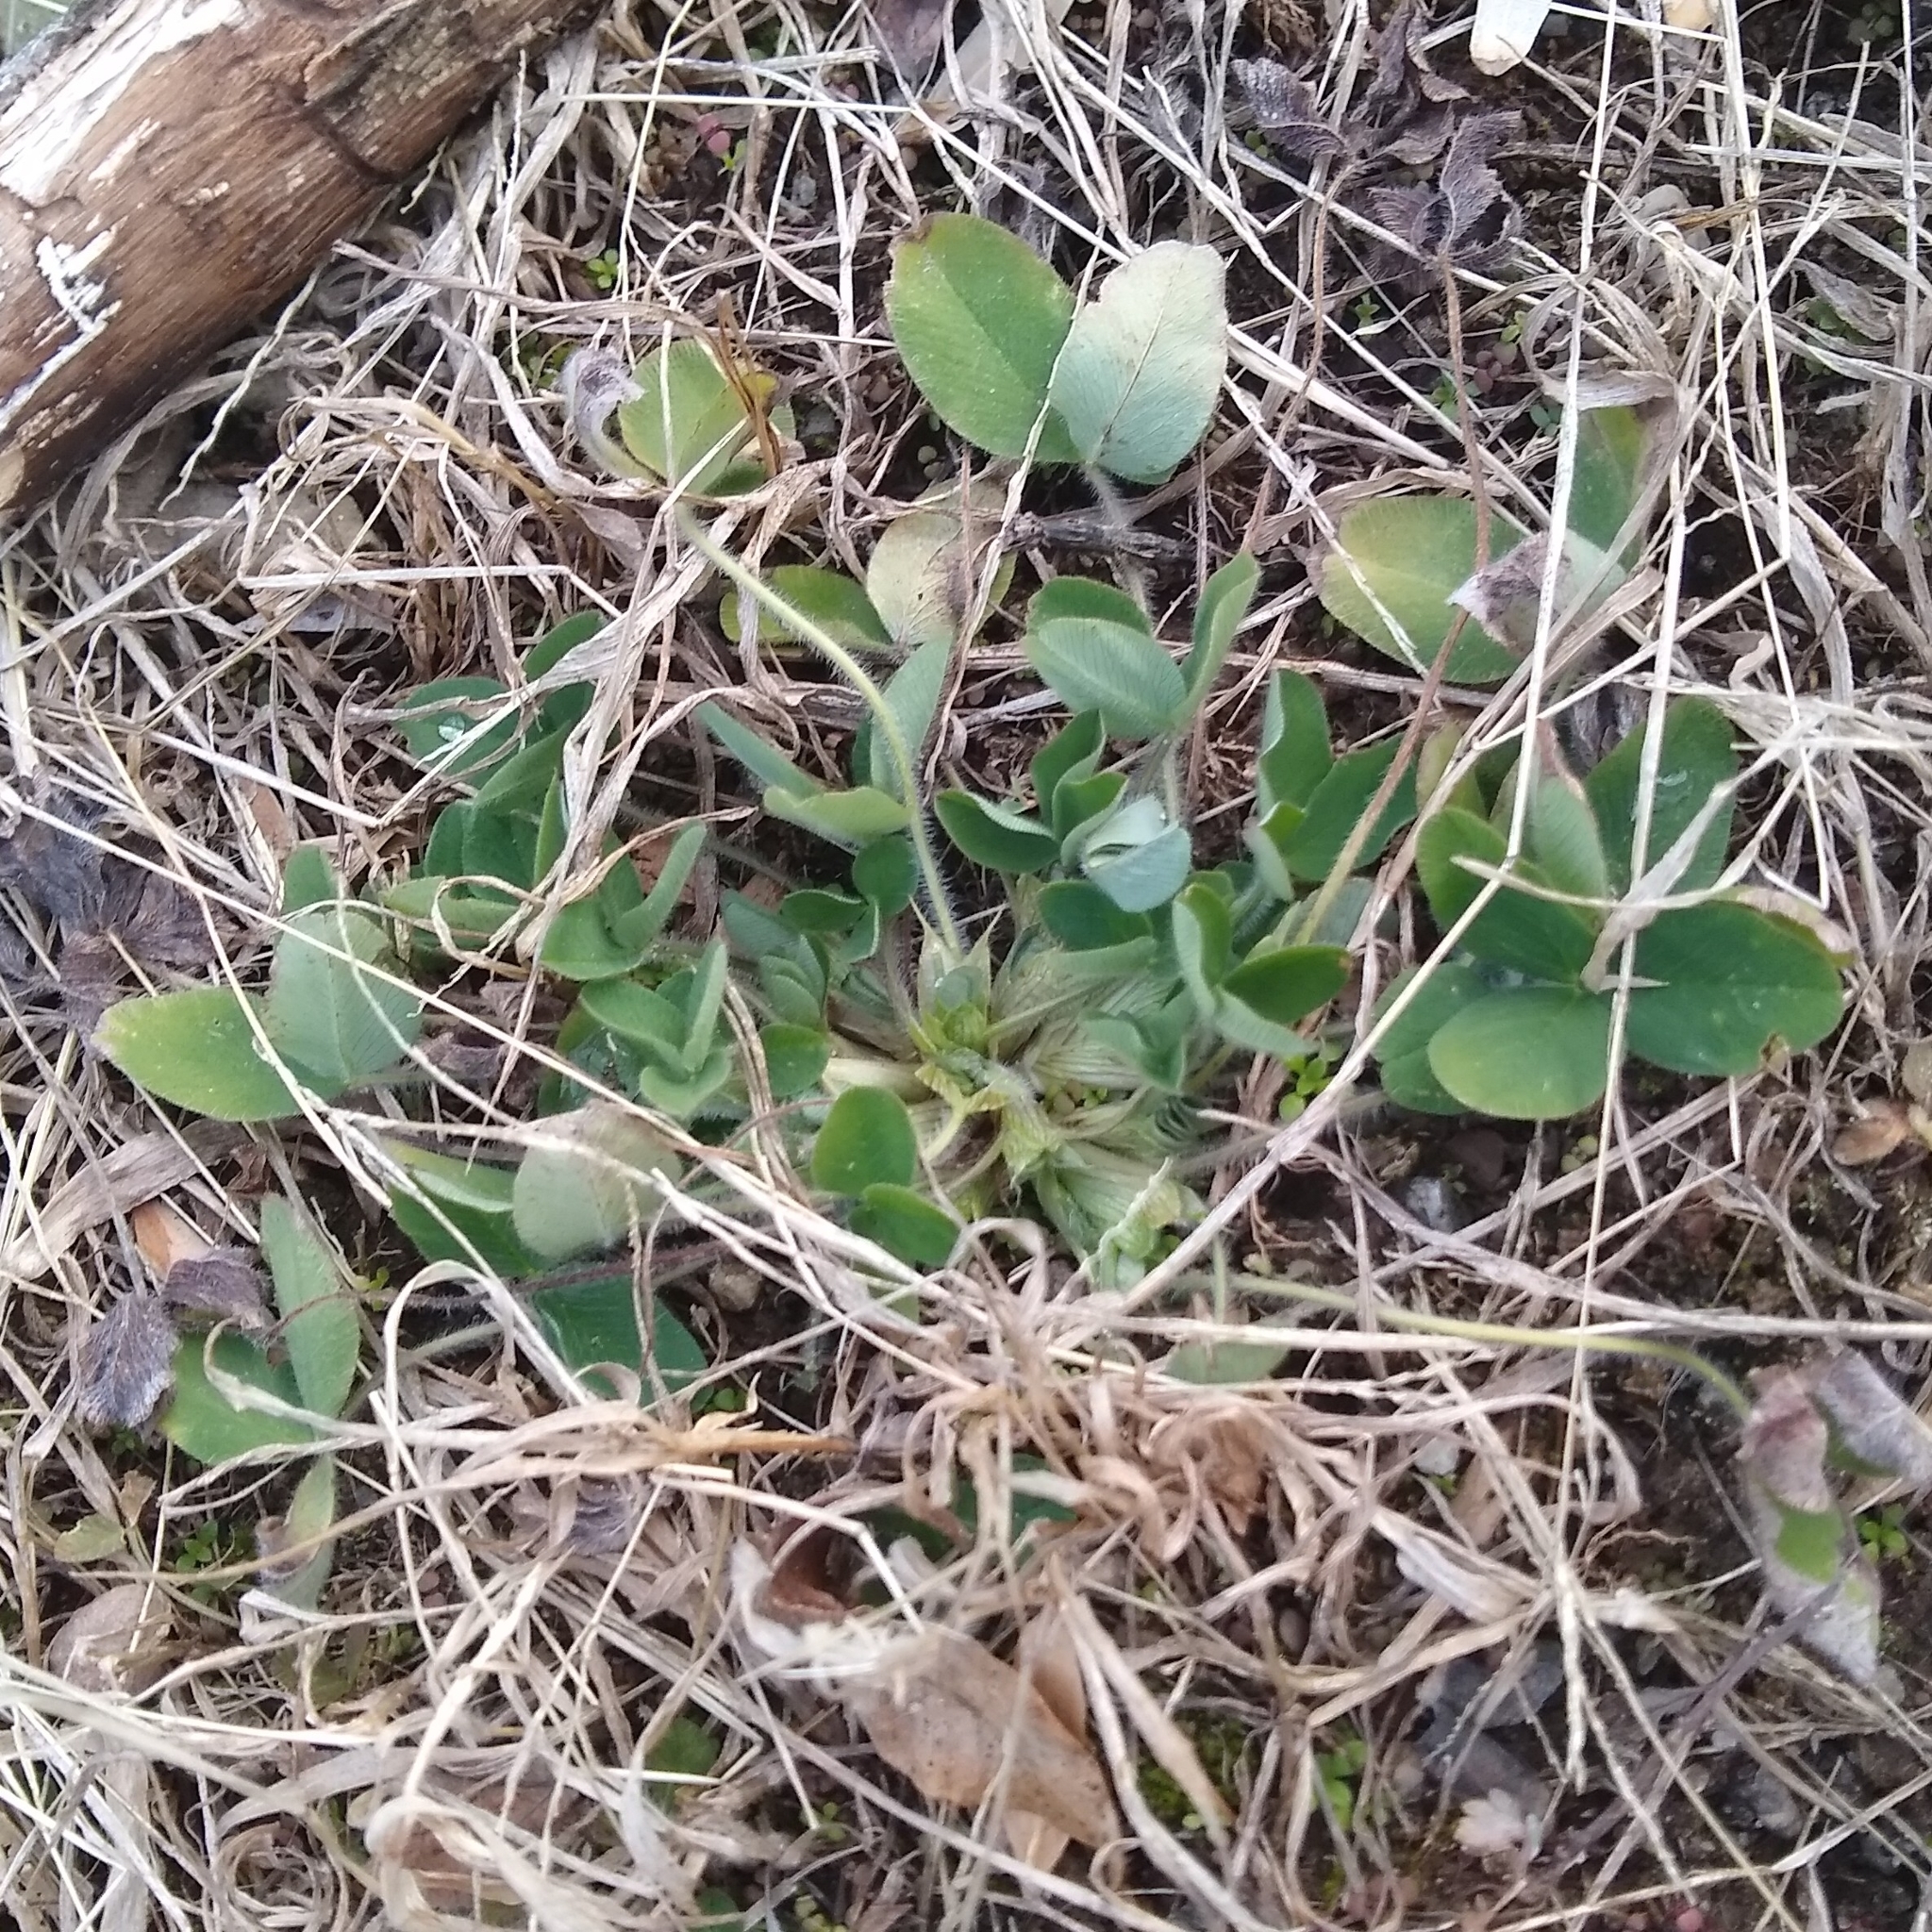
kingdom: Plantae
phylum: Tracheophyta
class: Magnoliopsida
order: Fabales
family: Fabaceae
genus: Trifolium
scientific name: Trifolium pratense
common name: Red clover
